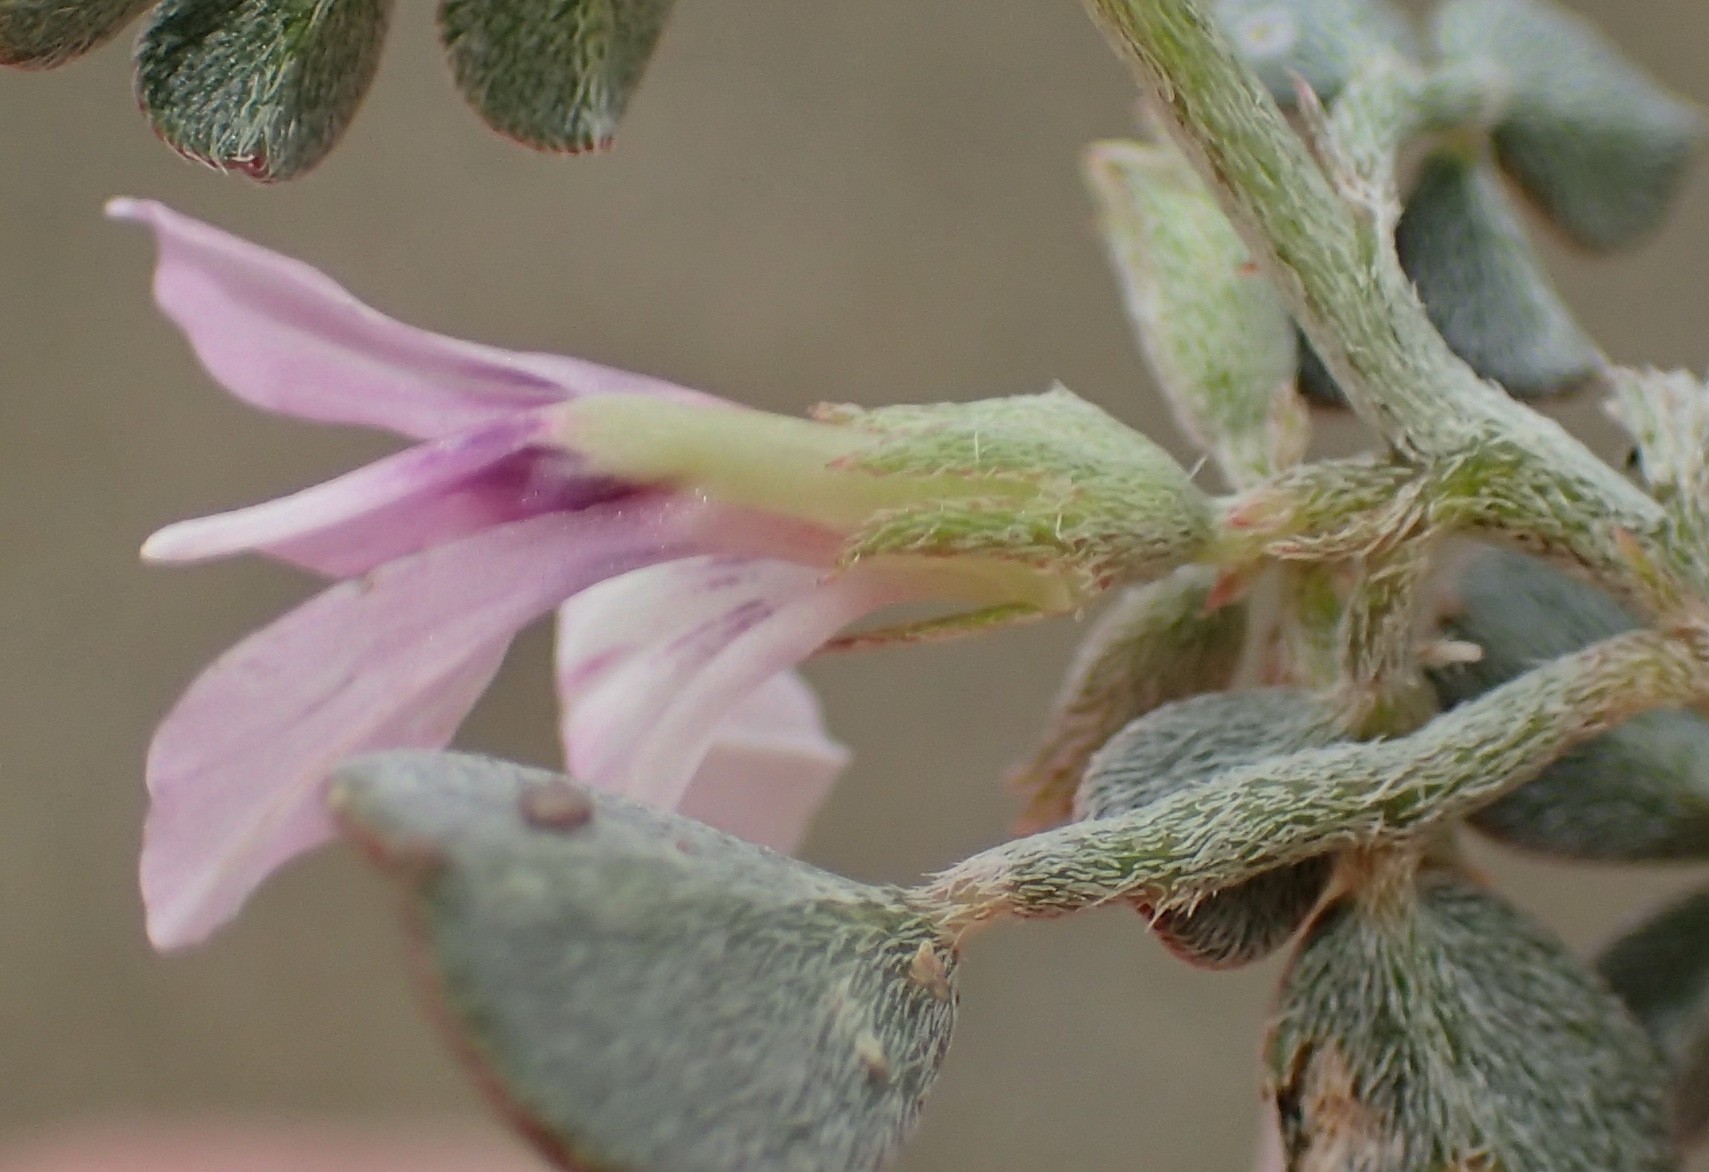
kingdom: Plantae
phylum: Tracheophyta
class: Magnoliopsida
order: Fabales
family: Fabaceae
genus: Indigastrum
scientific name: Indigastrum niveum
